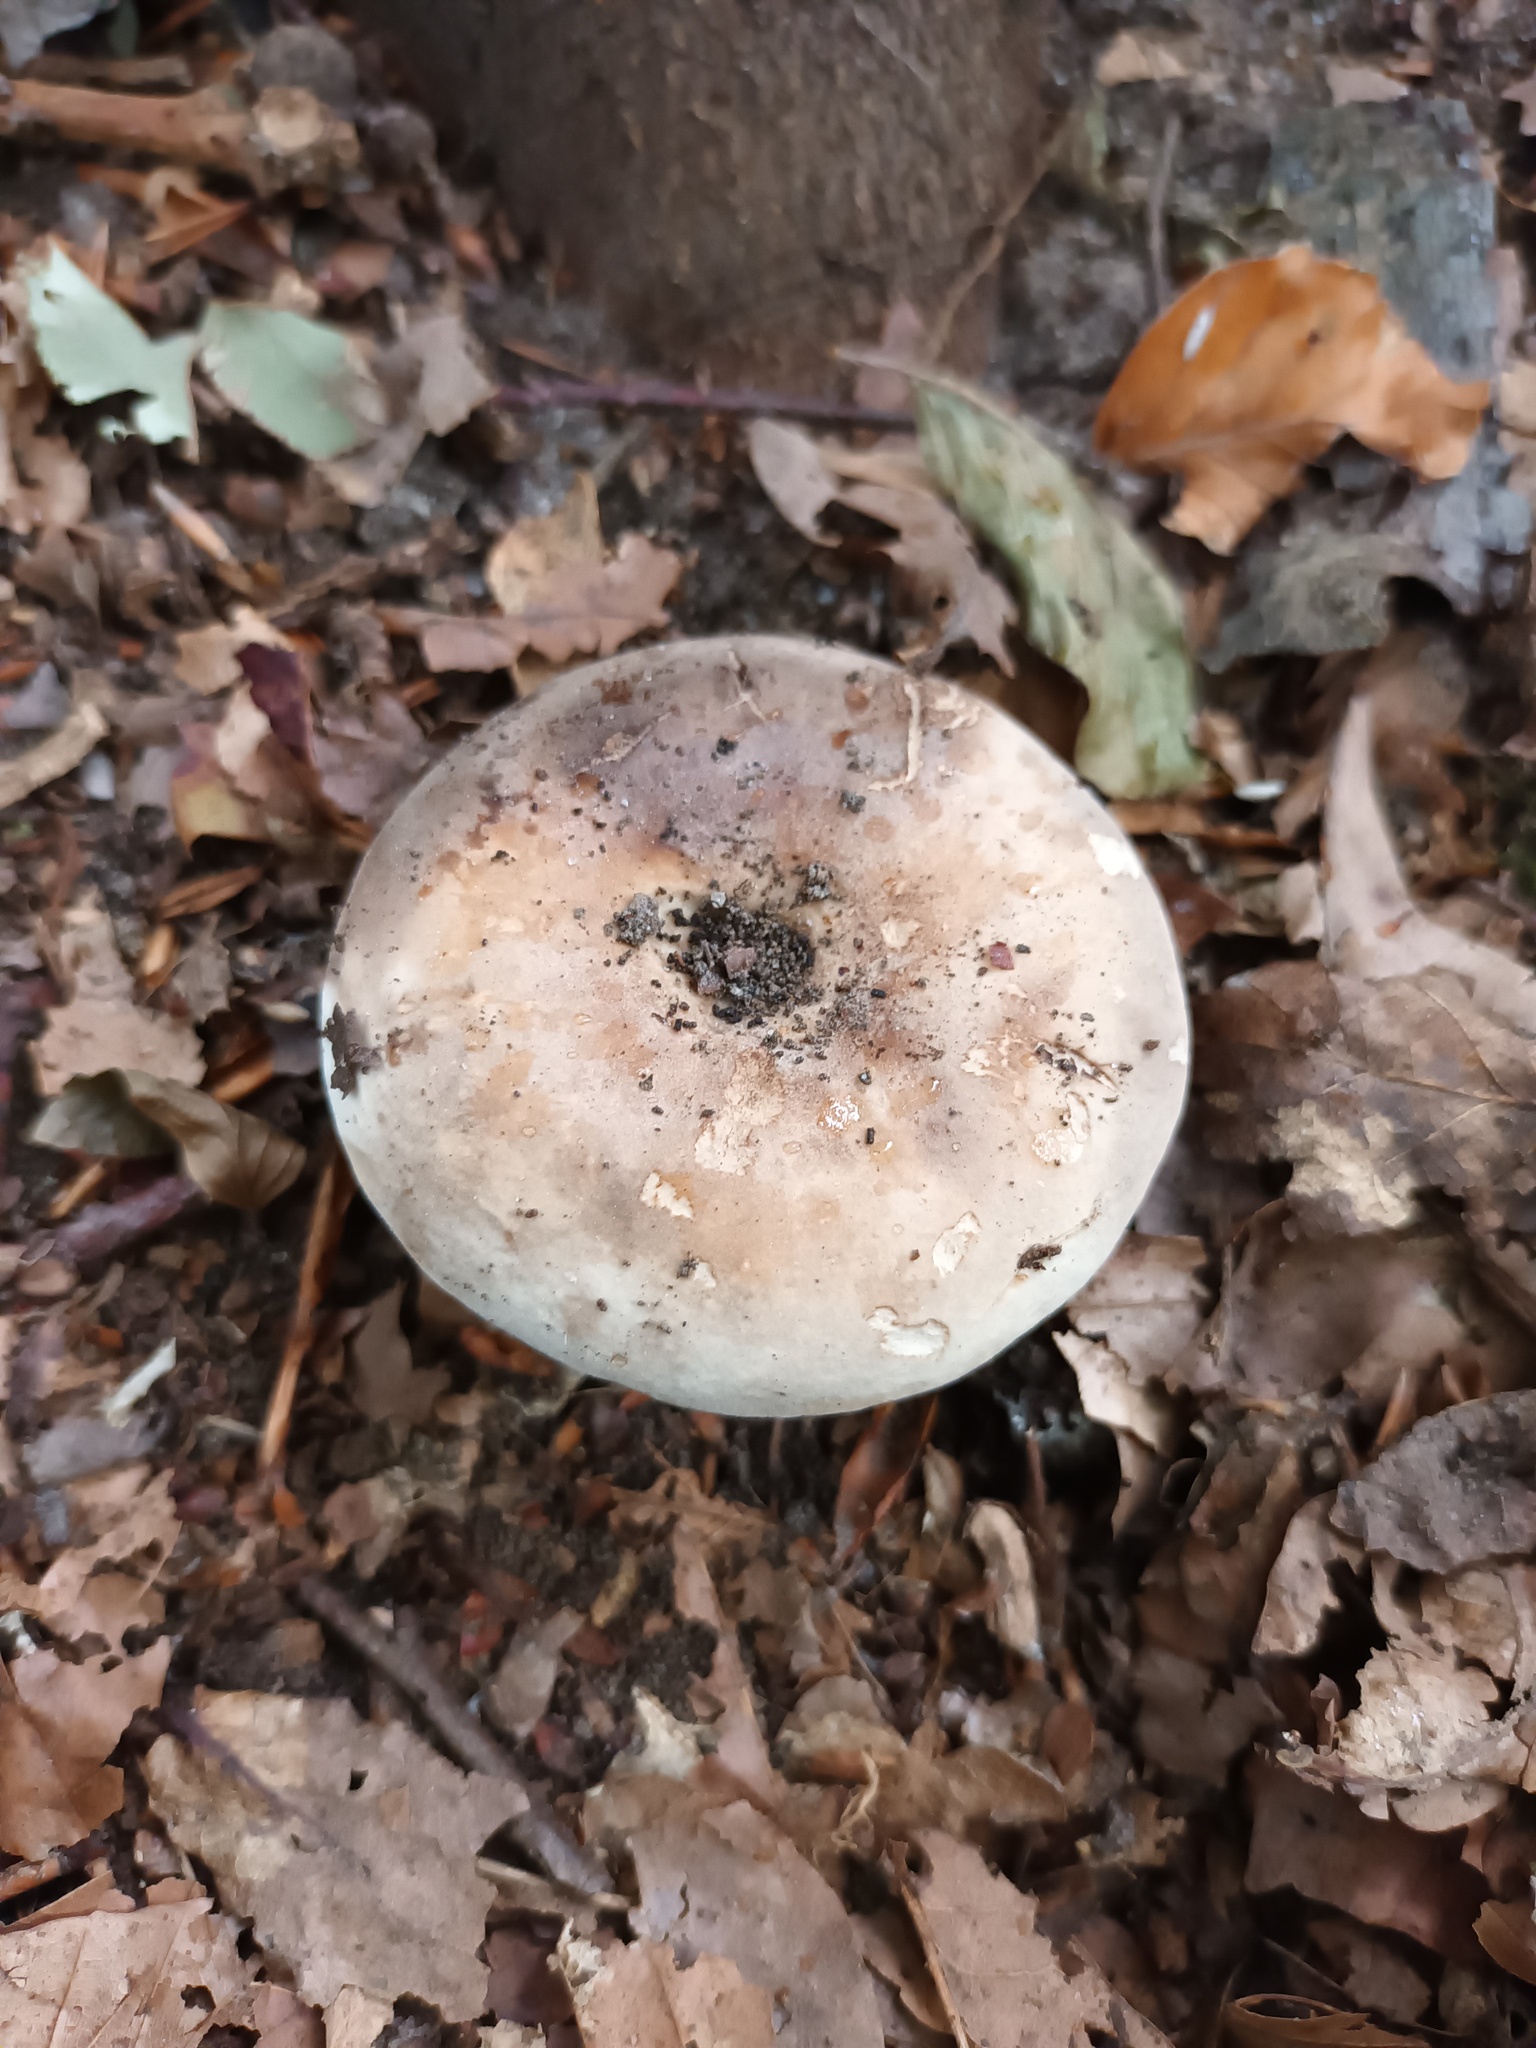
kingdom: Fungi
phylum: Basidiomycota
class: Agaricomycetes
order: Russulales
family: Russulaceae
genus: Russula
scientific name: Russula adusta
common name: Winecork brittlegill
